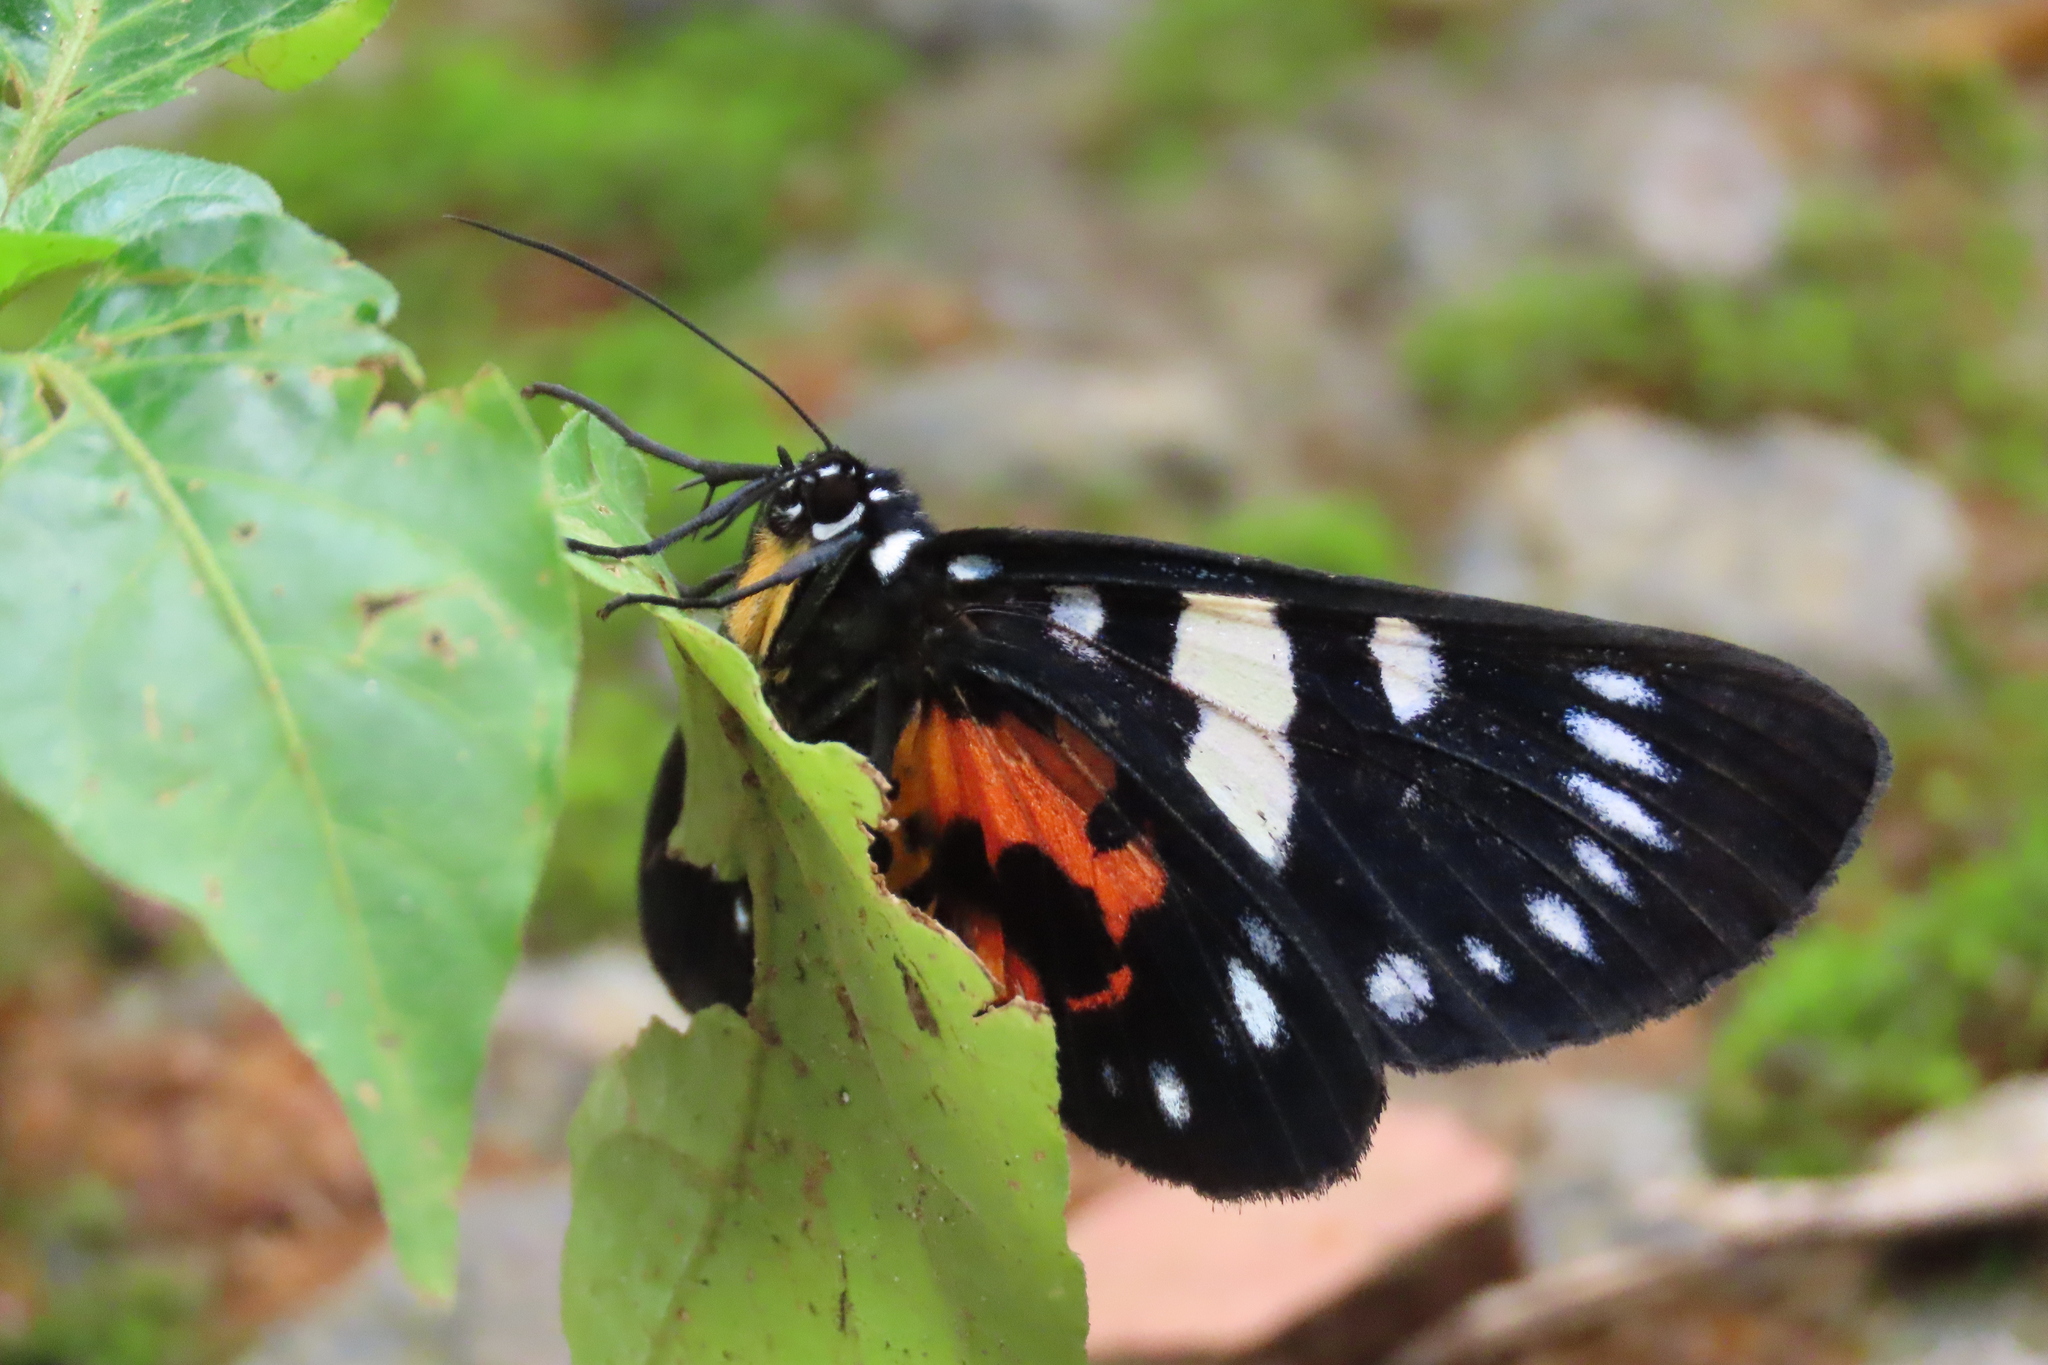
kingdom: Animalia
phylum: Arthropoda
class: Insecta
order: Lepidoptera
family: Noctuidae
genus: Episteme
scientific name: Episteme latimargo
